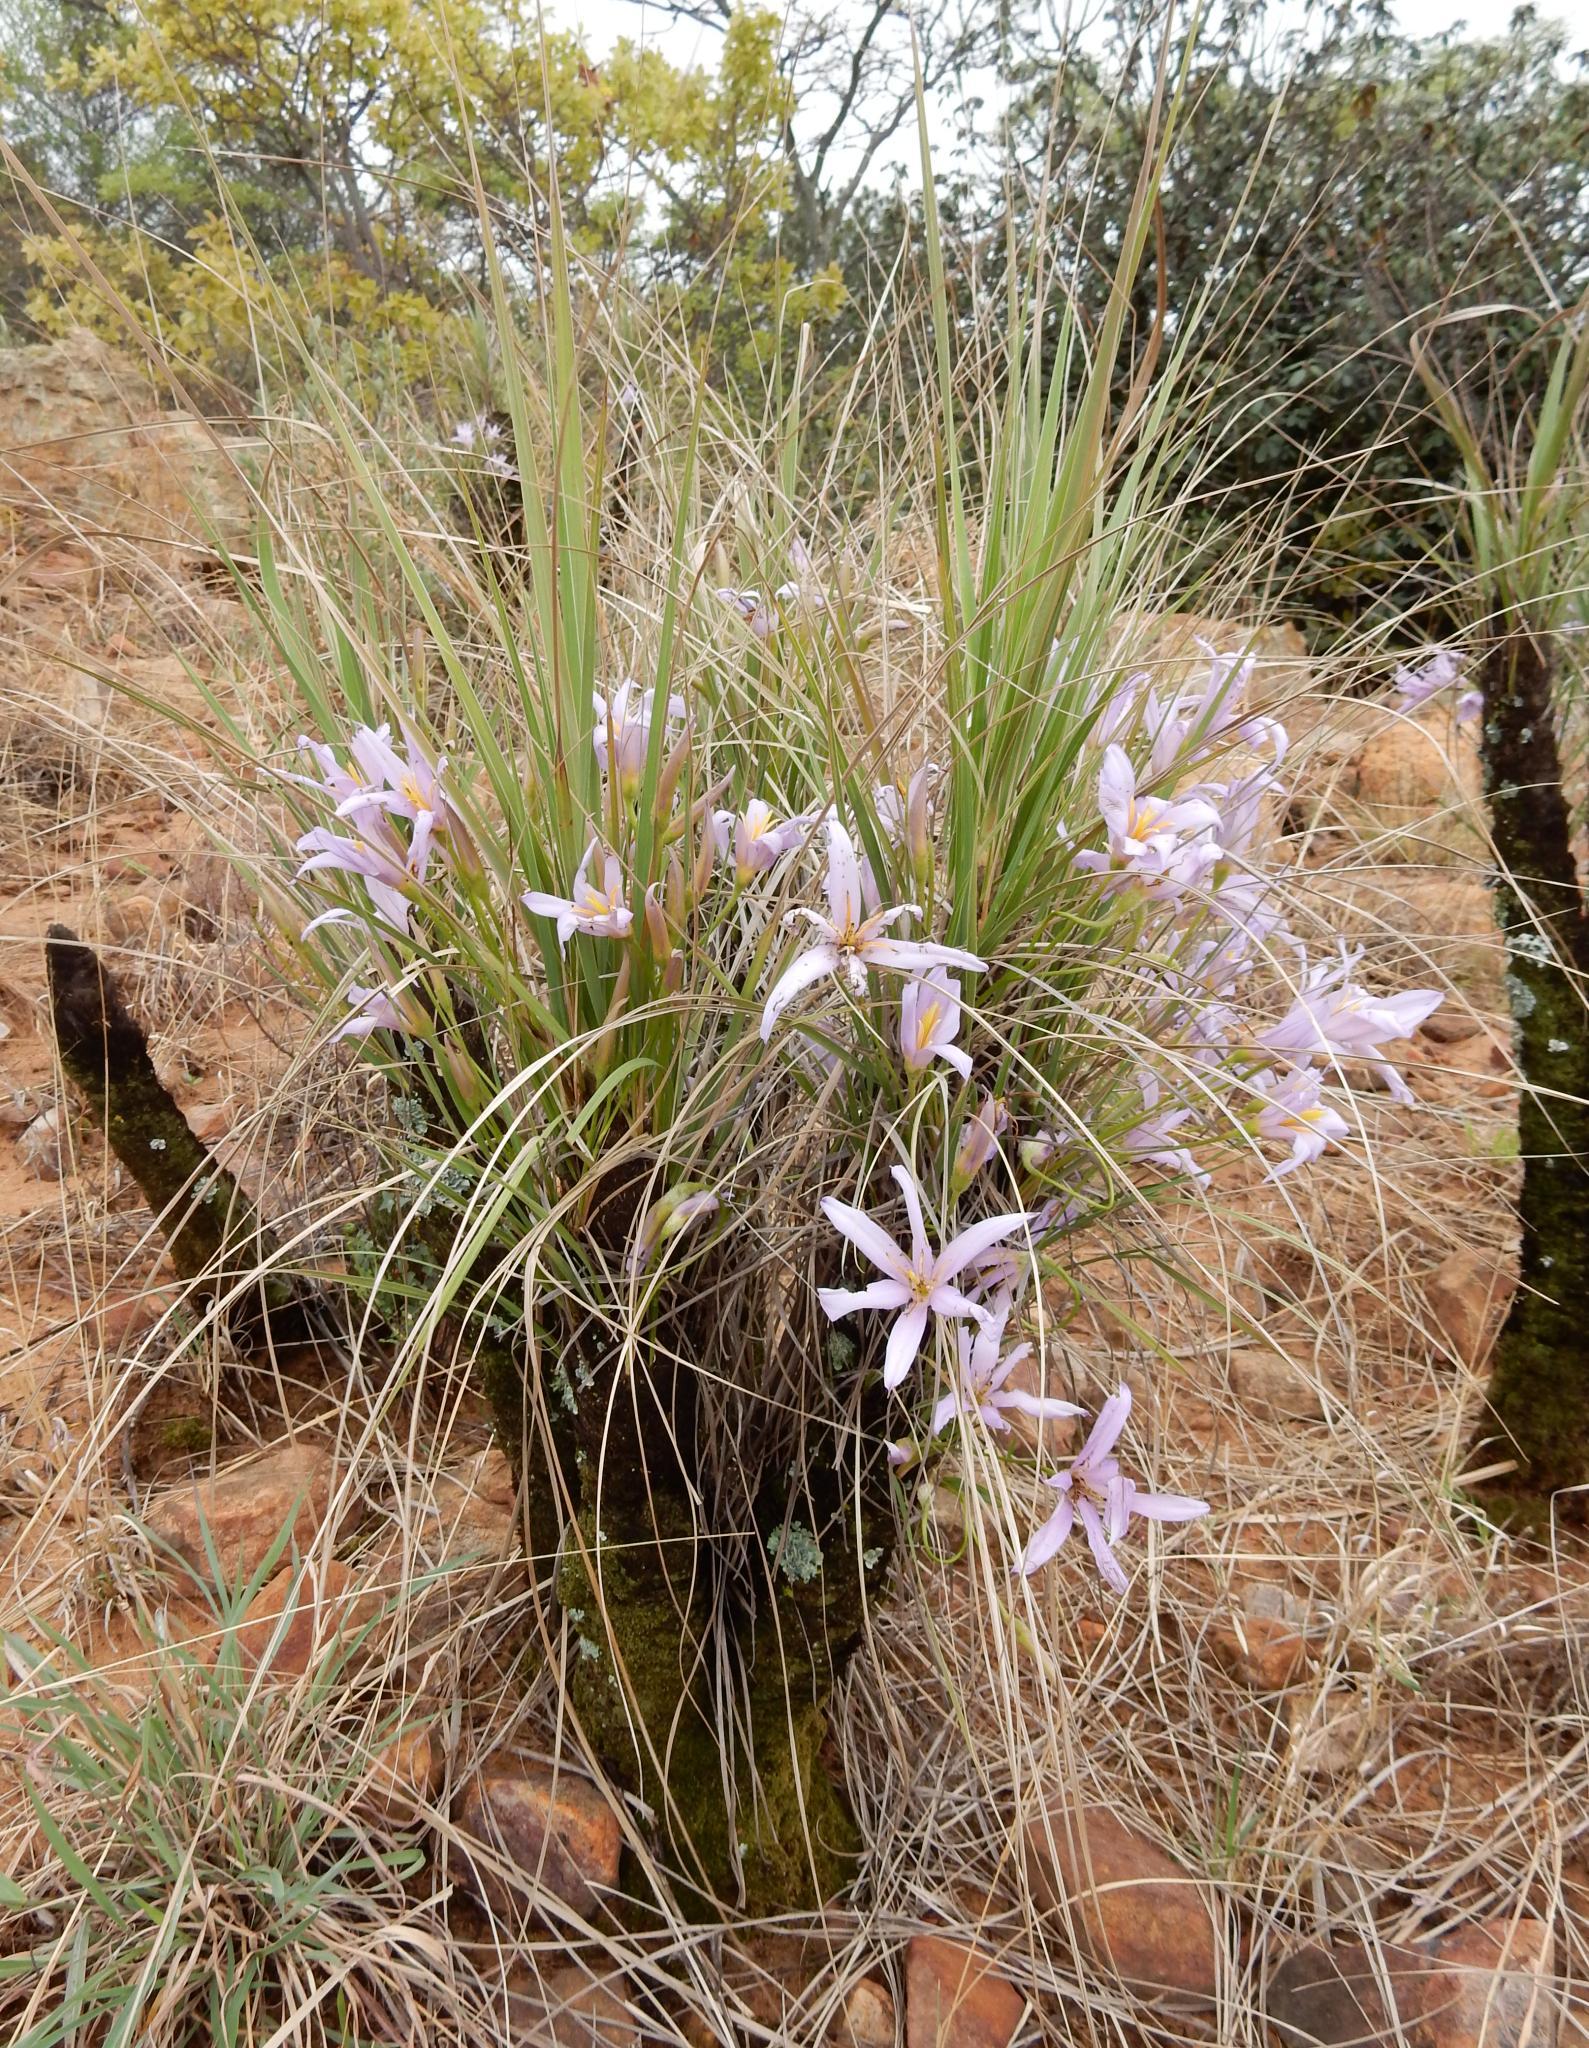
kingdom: Plantae
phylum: Tracheophyta
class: Liliopsida
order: Pandanales
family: Velloziaceae
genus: Xerophyta
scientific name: Xerophyta retinervis
